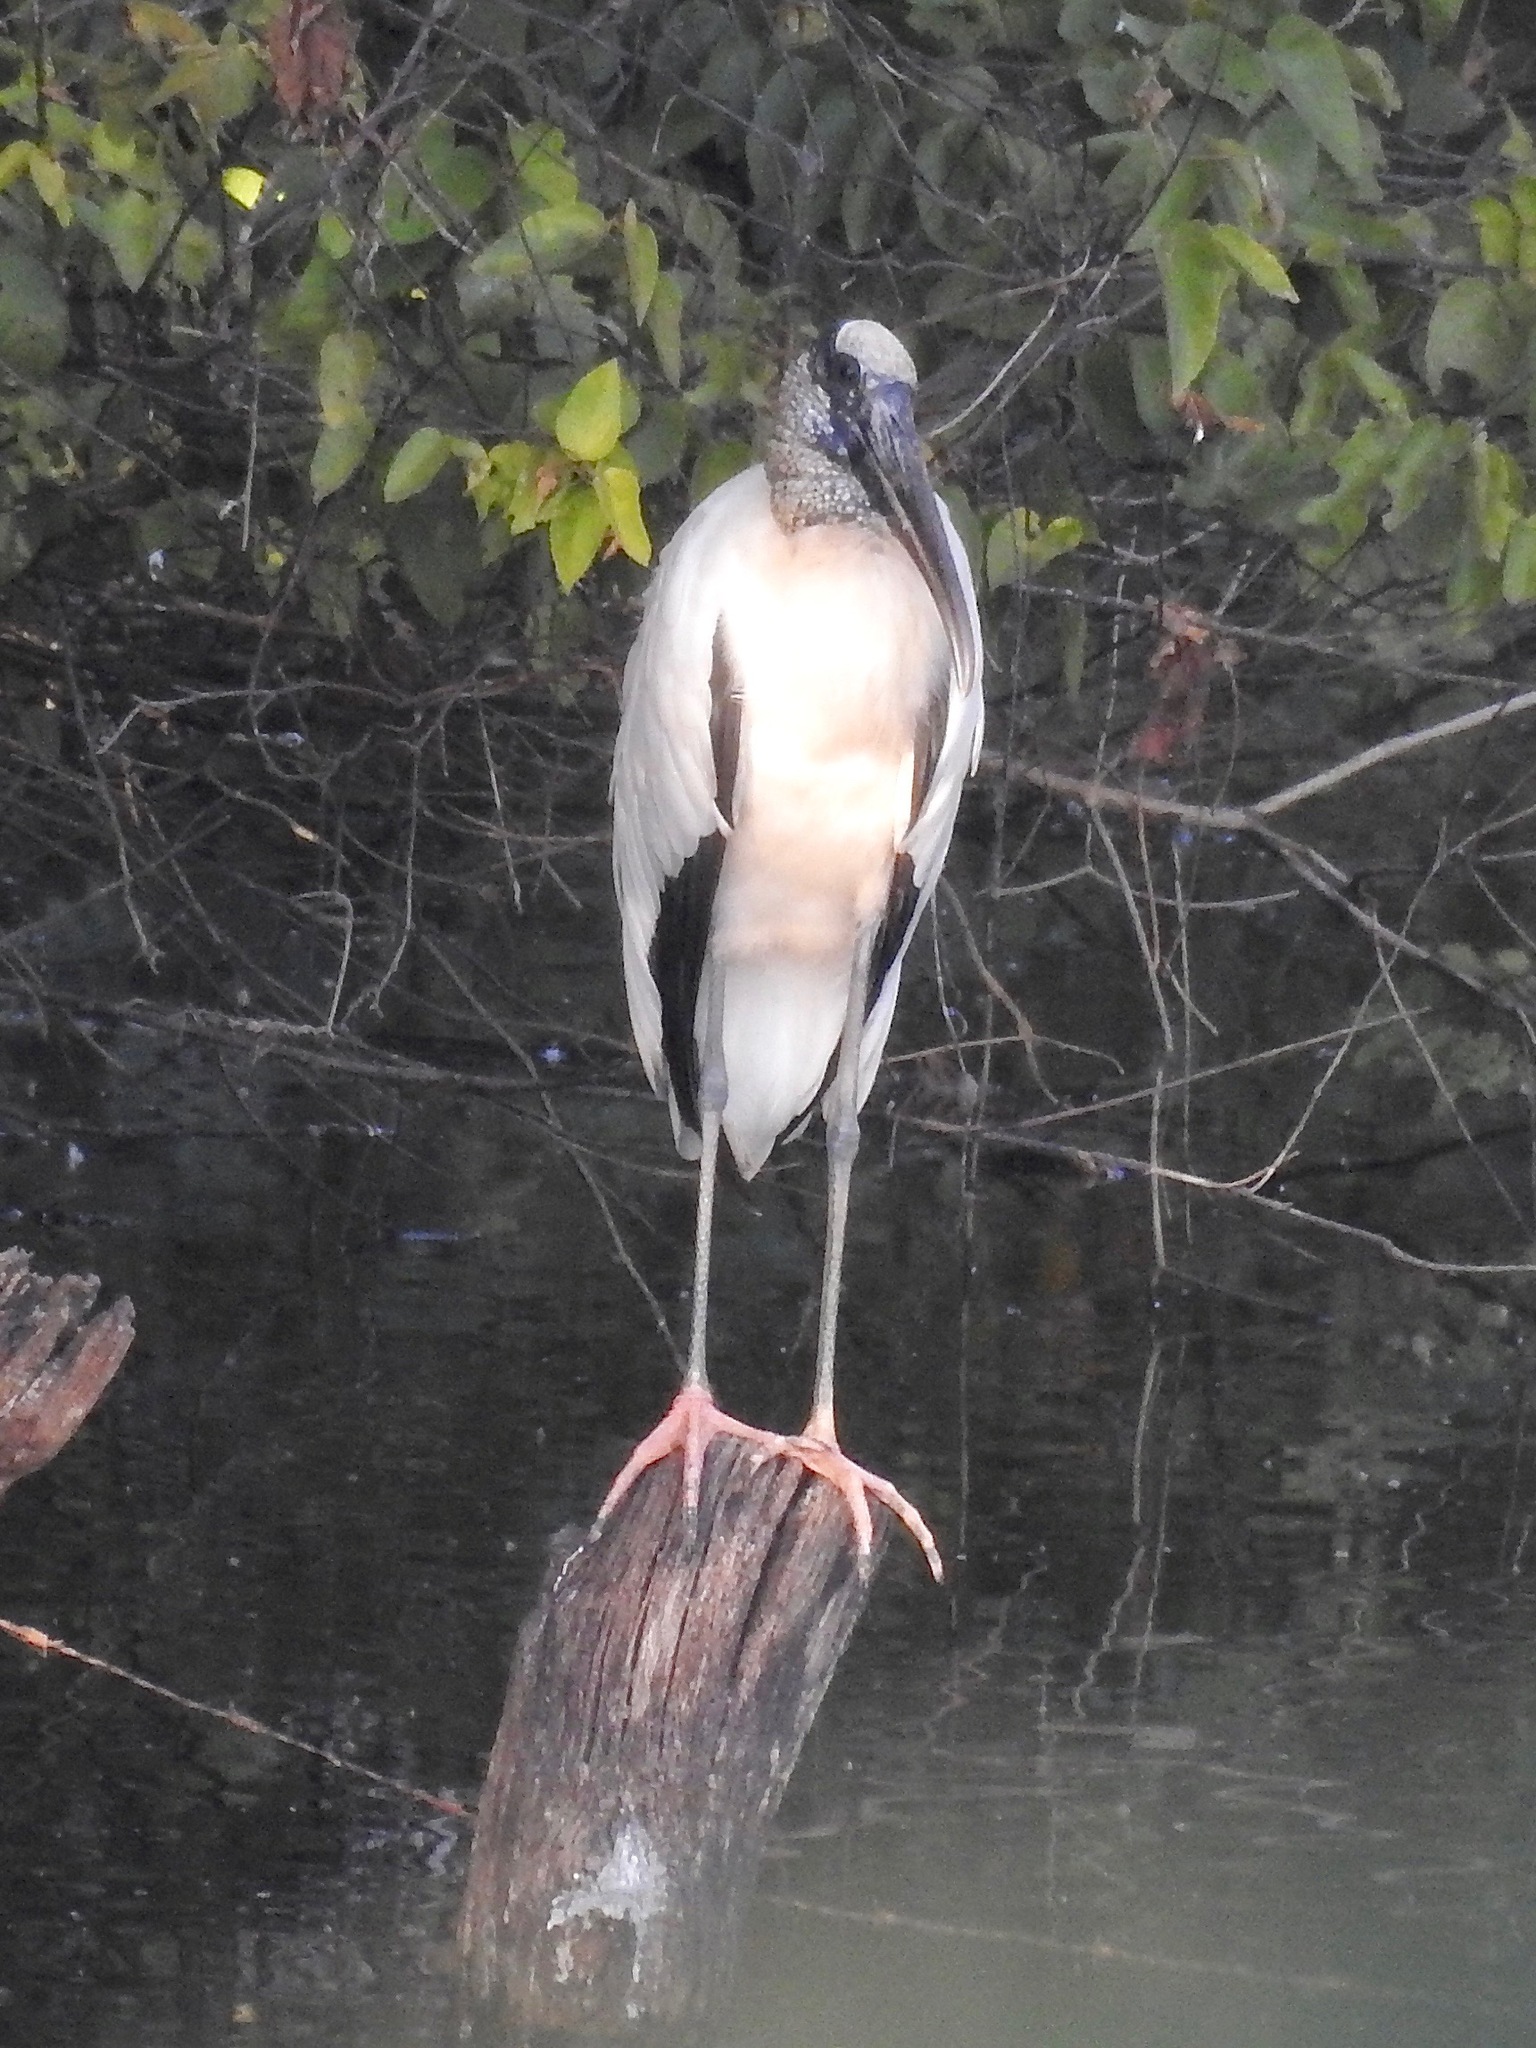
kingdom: Animalia
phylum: Chordata
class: Aves
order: Ciconiiformes
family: Ciconiidae
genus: Mycteria
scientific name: Mycteria americana
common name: Wood stork
